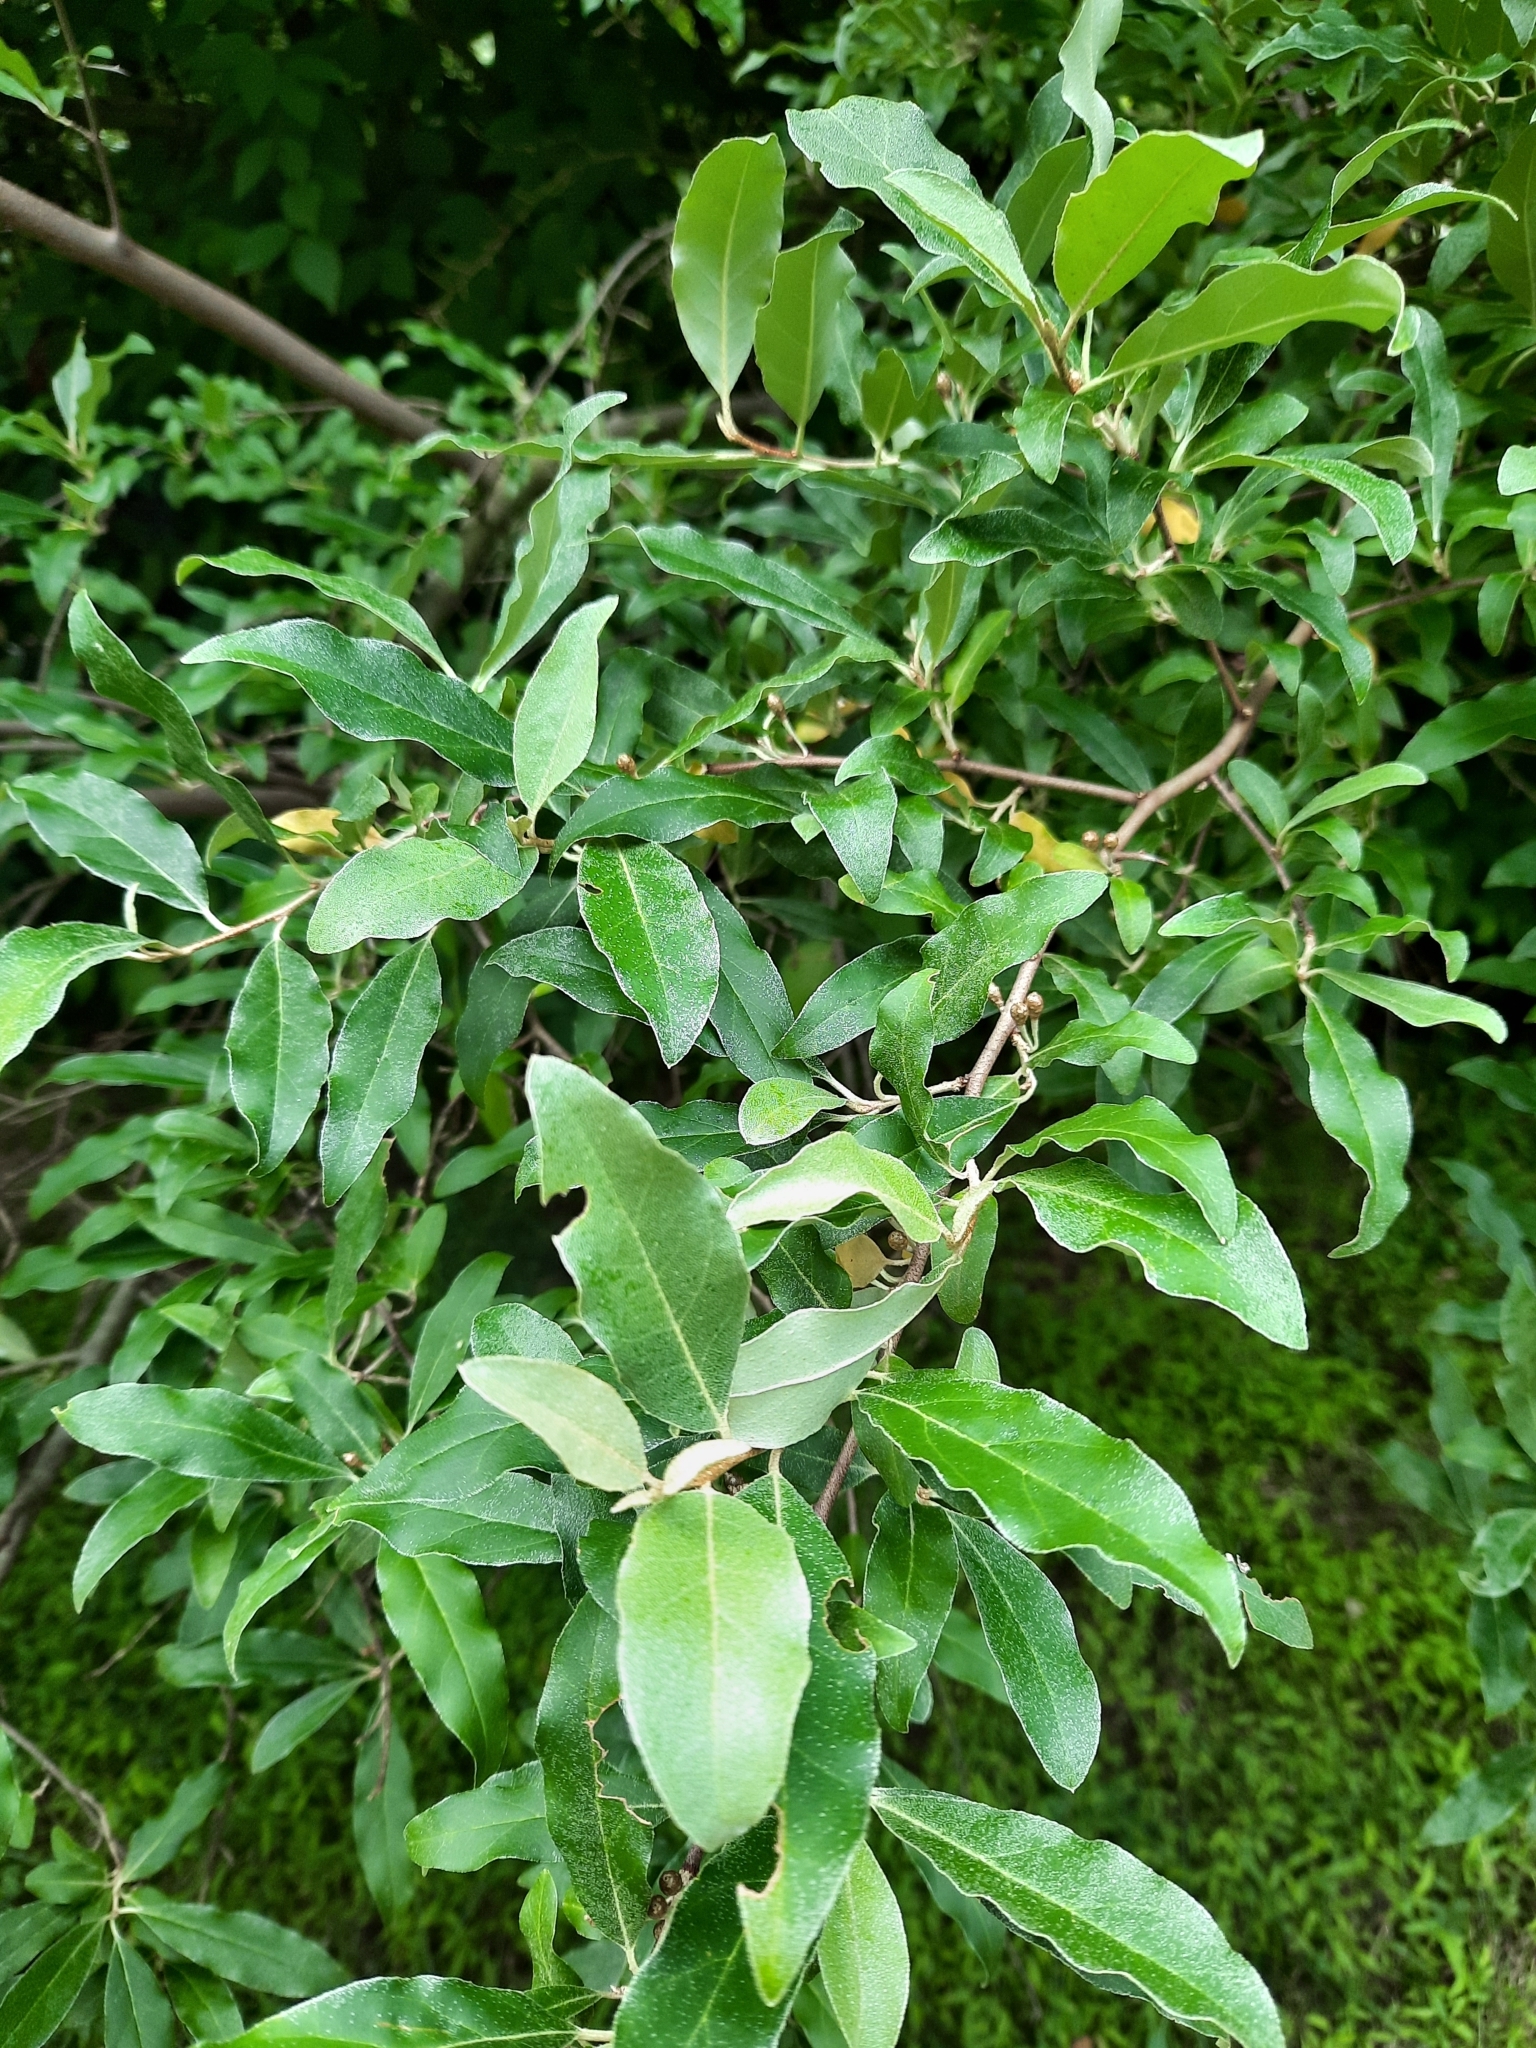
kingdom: Plantae
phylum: Tracheophyta
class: Magnoliopsida
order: Rosales
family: Elaeagnaceae
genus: Elaeagnus
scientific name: Elaeagnus umbellata
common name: Autumn olive
